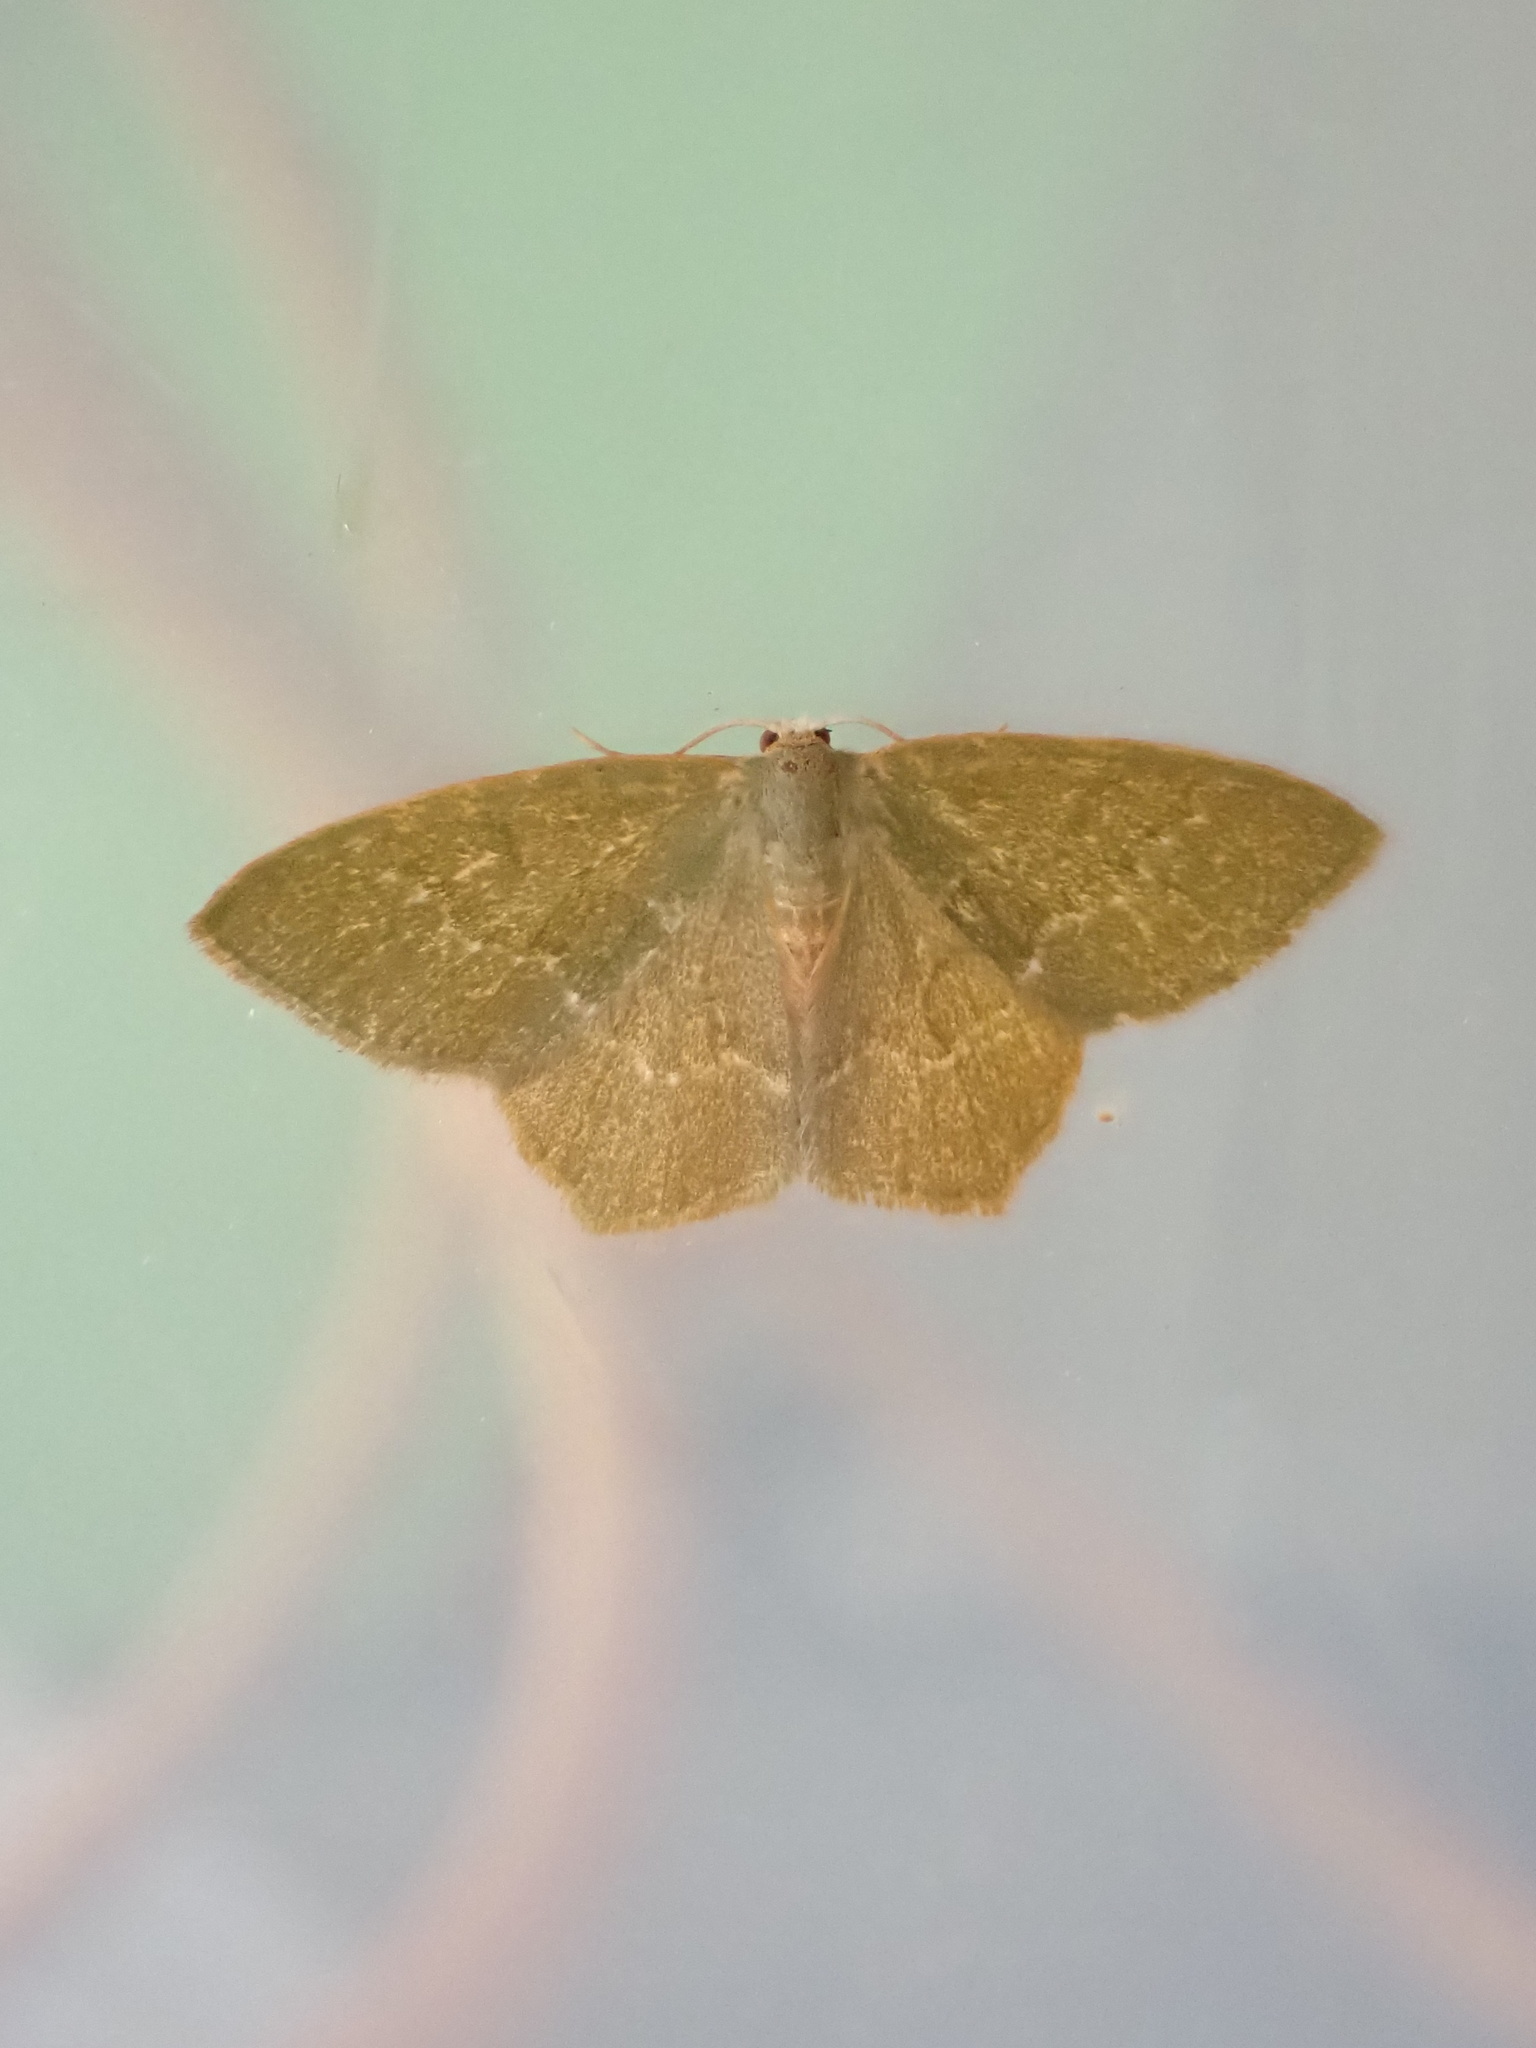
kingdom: Animalia
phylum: Arthropoda
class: Insecta
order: Lepidoptera
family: Geometridae
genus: Thalera
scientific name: Thalera pistasciaria
